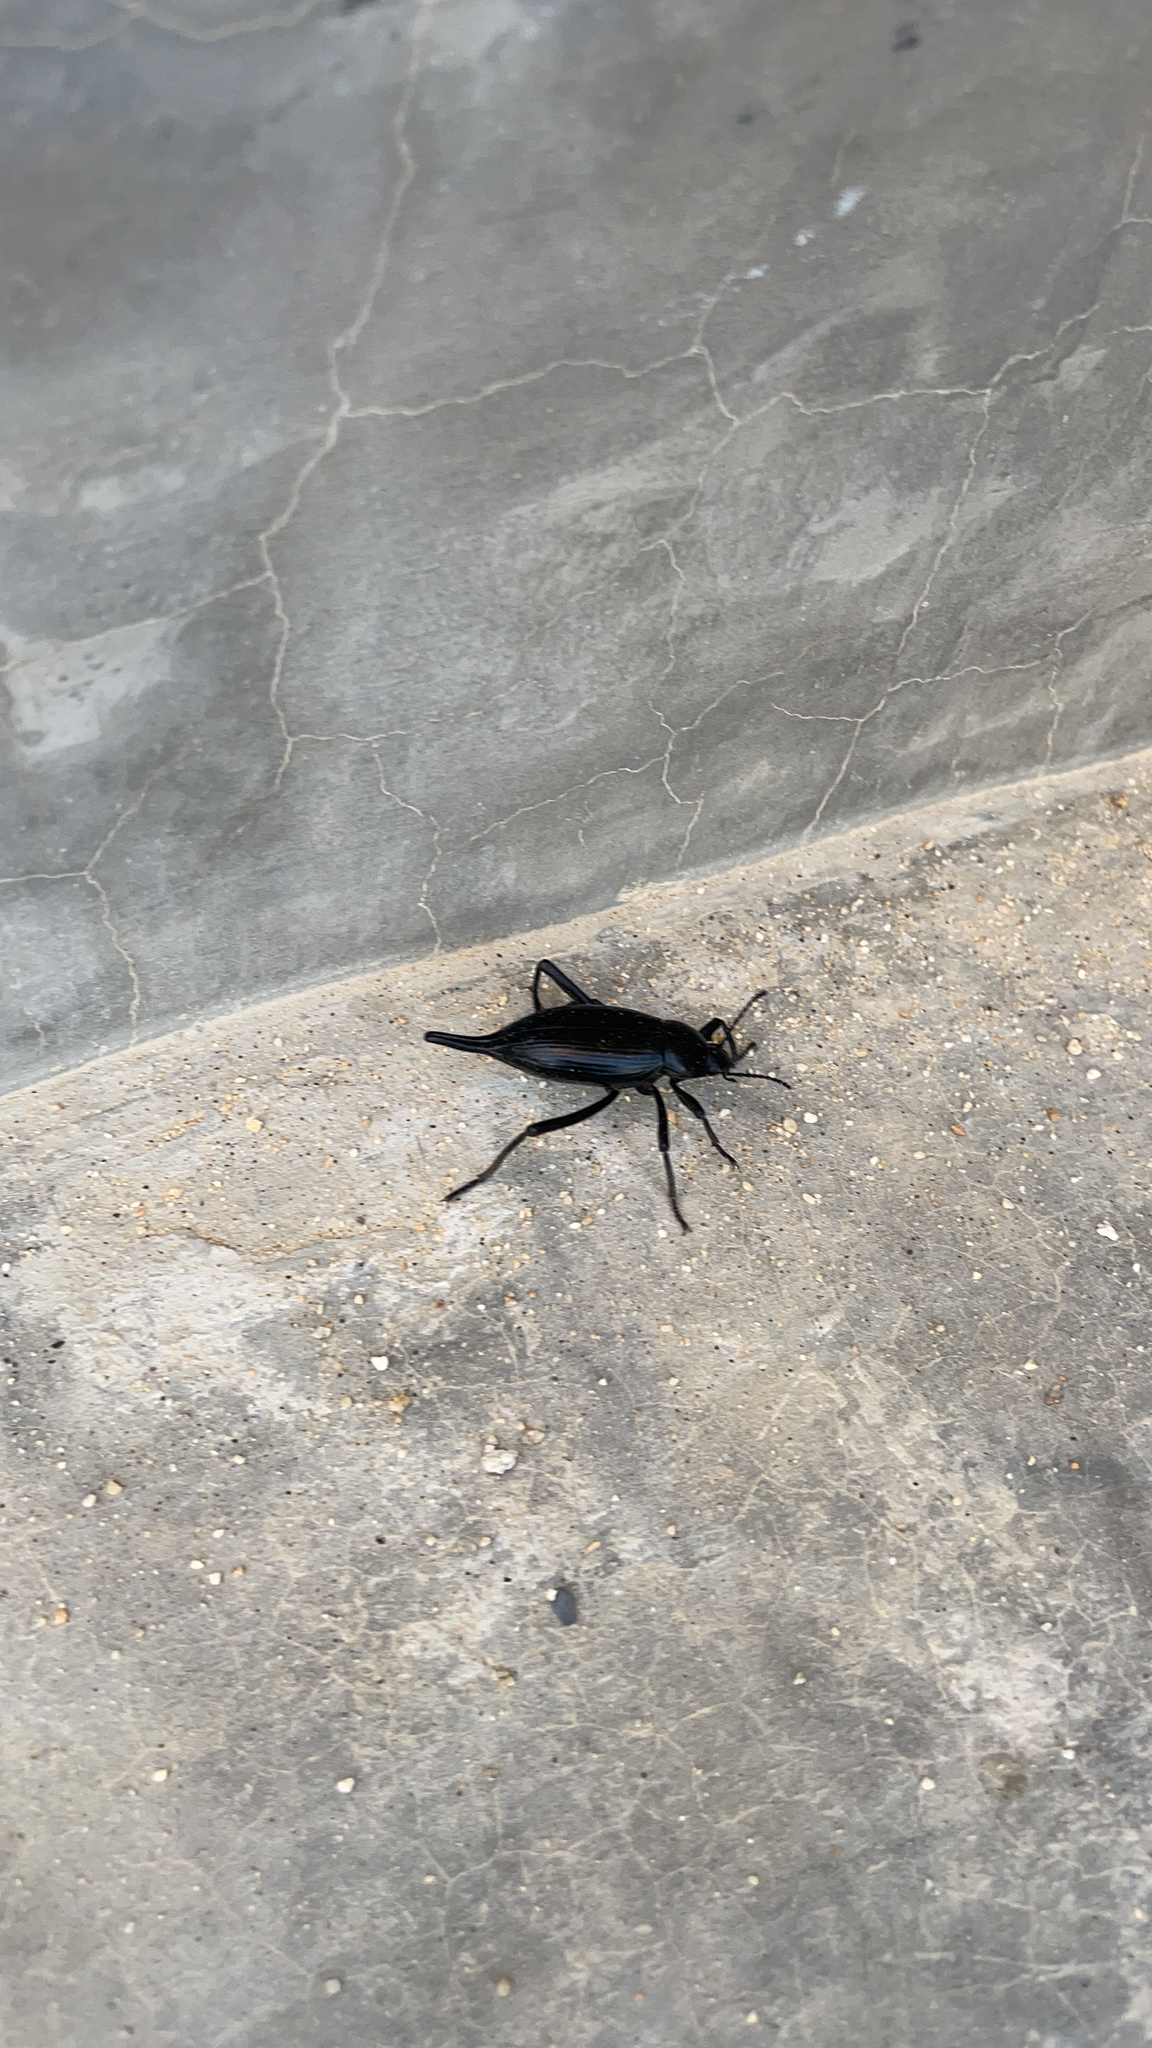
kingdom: Animalia
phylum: Arthropoda
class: Insecta
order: Coleoptera
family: Tenebrionidae
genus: Eleodes
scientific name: Eleodes eschscholtzii
